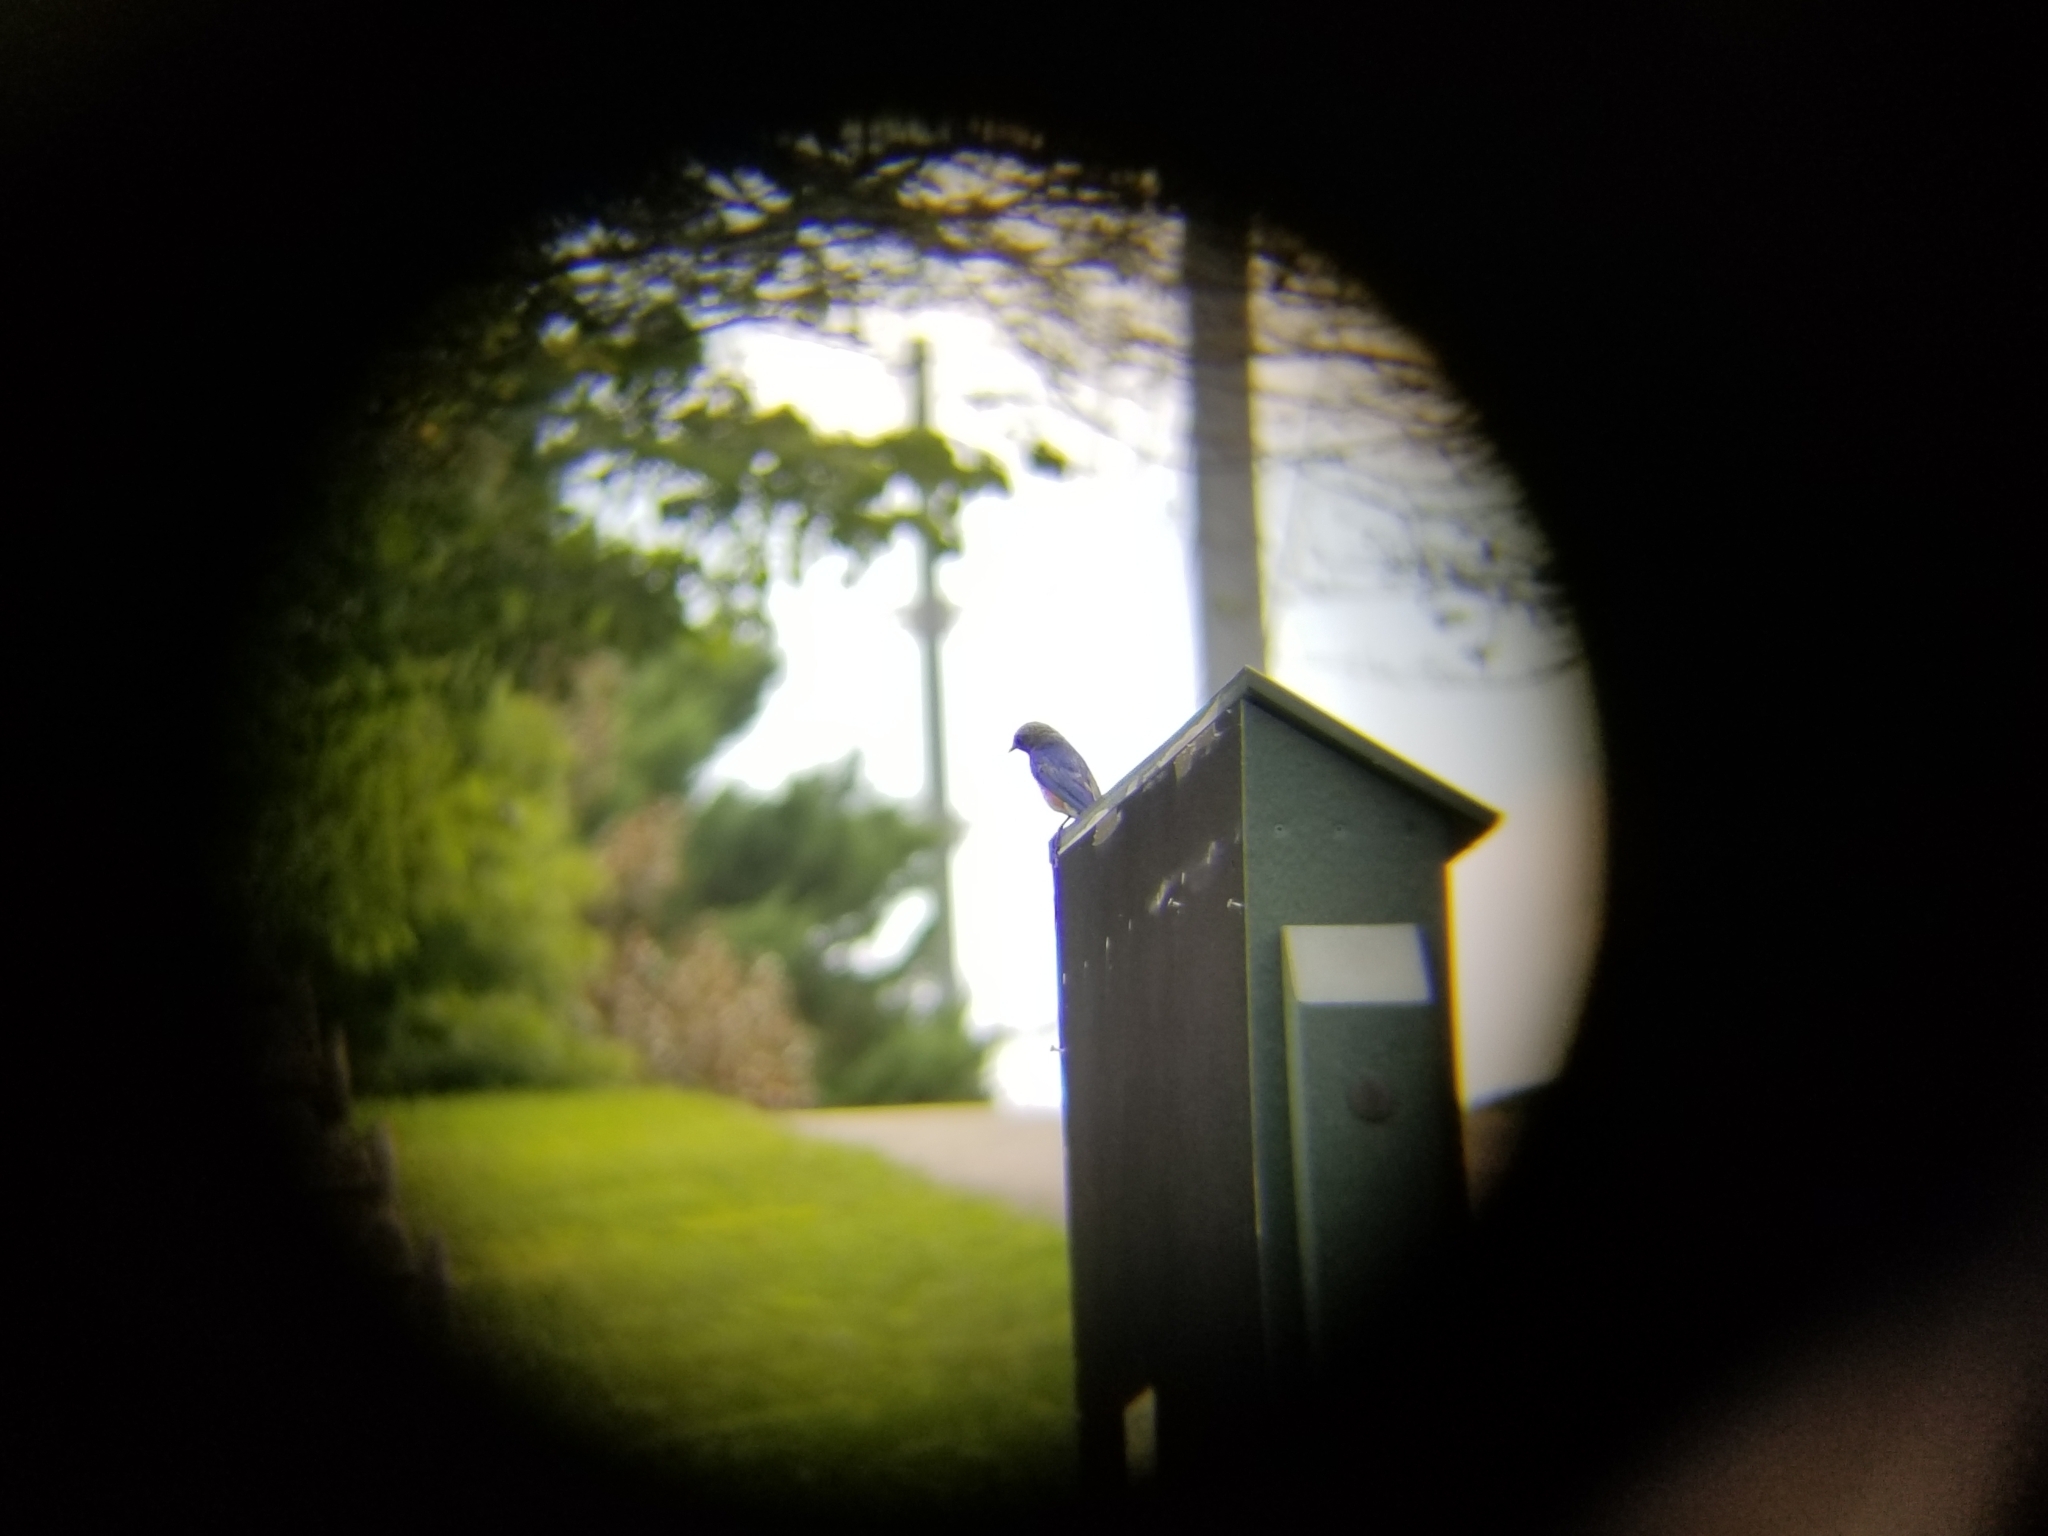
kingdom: Animalia
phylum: Chordata
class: Aves
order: Passeriformes
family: Turdidae
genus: Sialia
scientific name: Sialia sialis
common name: Eastern bluebird
